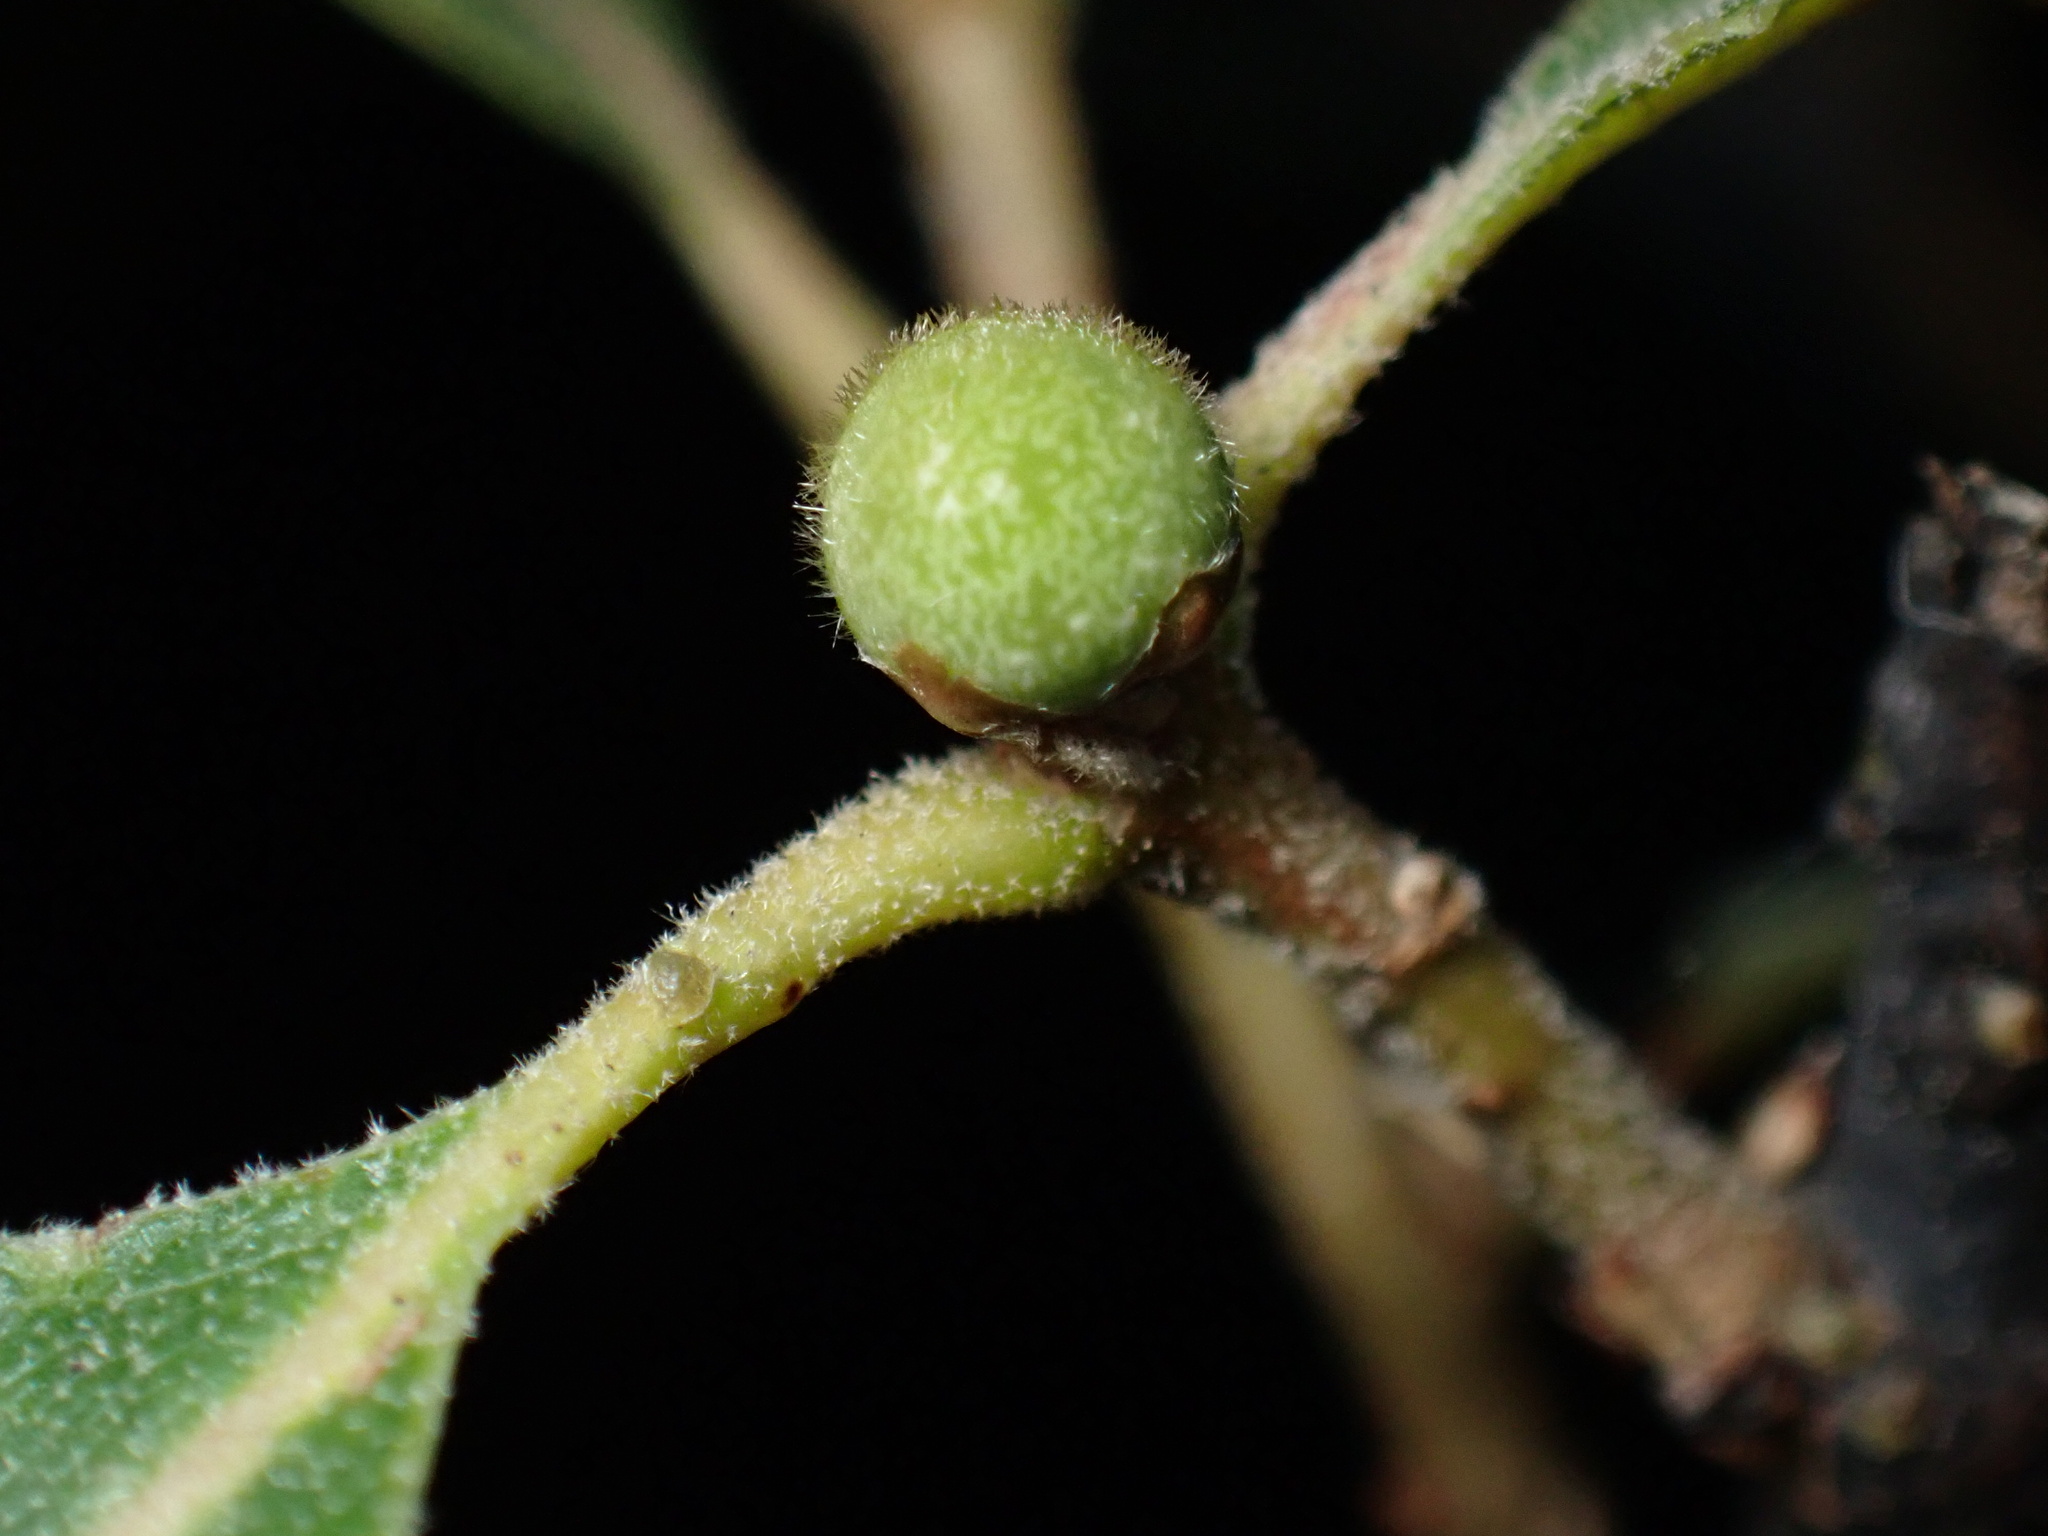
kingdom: Animalia
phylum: Arthropoda
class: Insecta
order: Hymenoptera
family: Cynipidae
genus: Callirhytis
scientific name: Callirhytis
